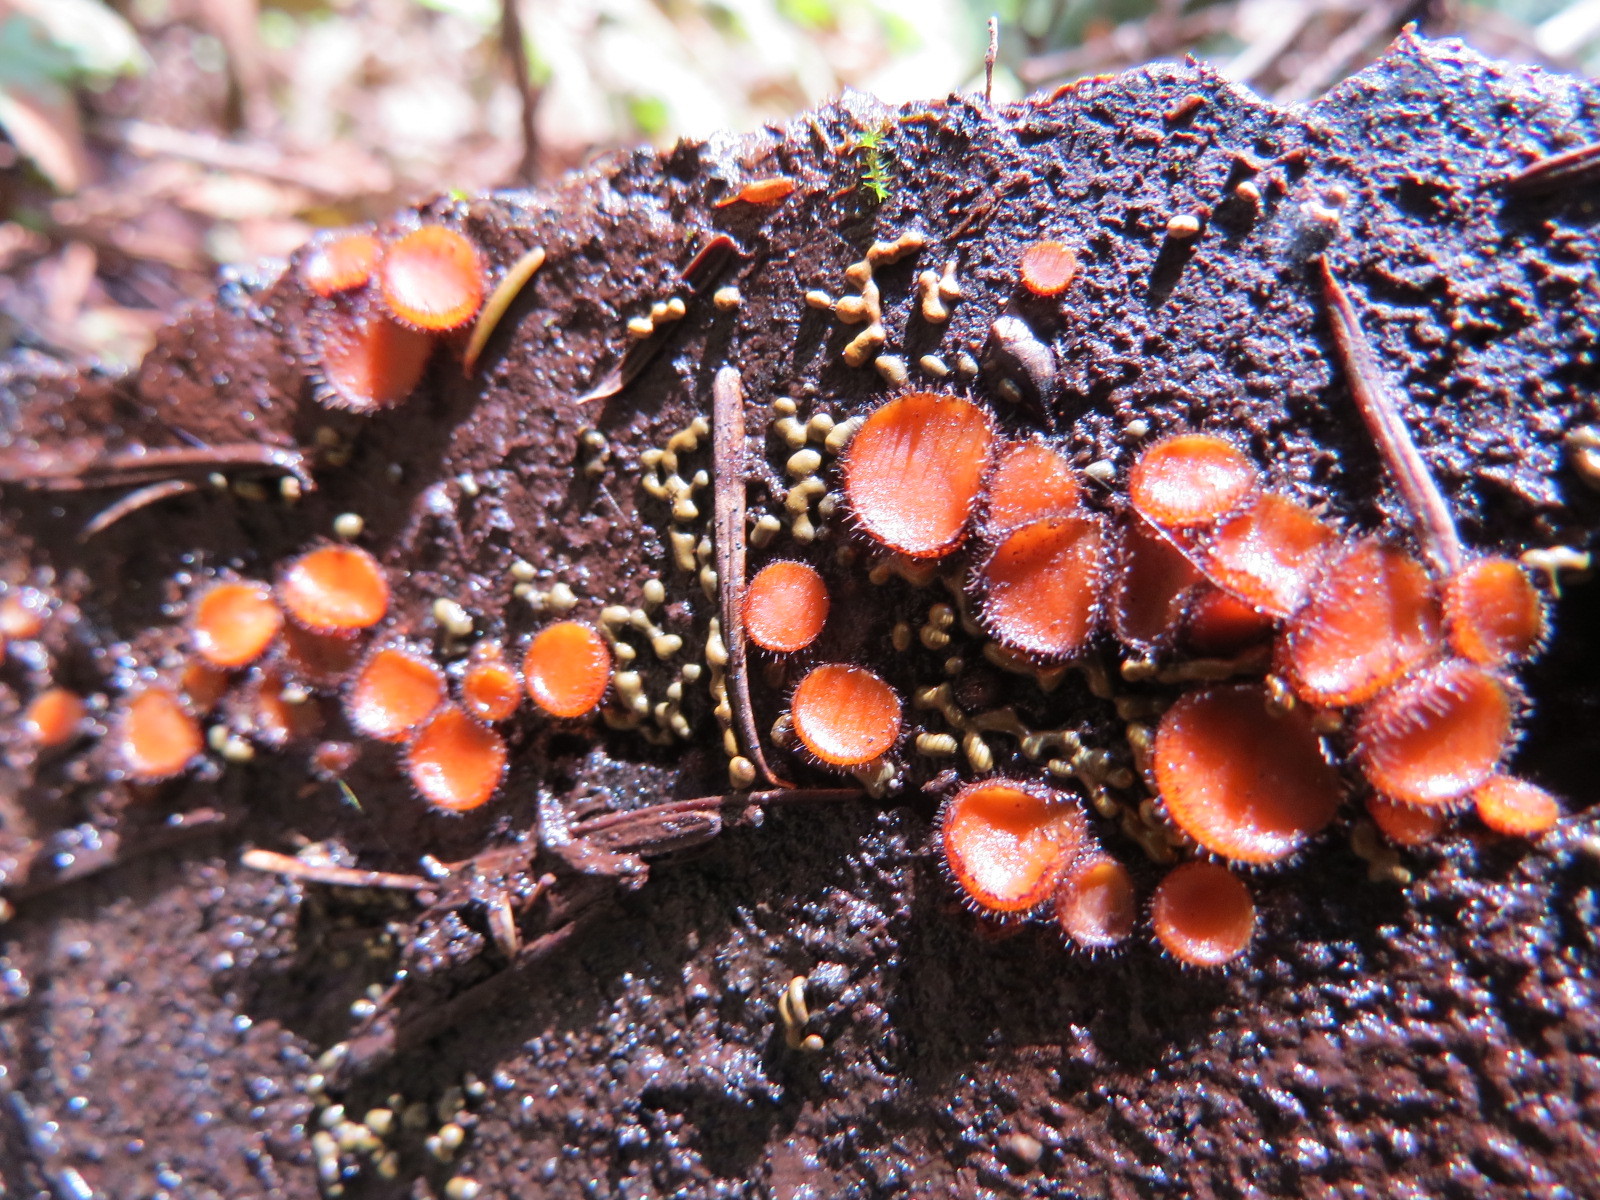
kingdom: Fungi
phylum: Ascomycota
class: Pezizomycetes
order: Pezizales
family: Pyronemataceae
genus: Scutellinia
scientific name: Scutellinia
